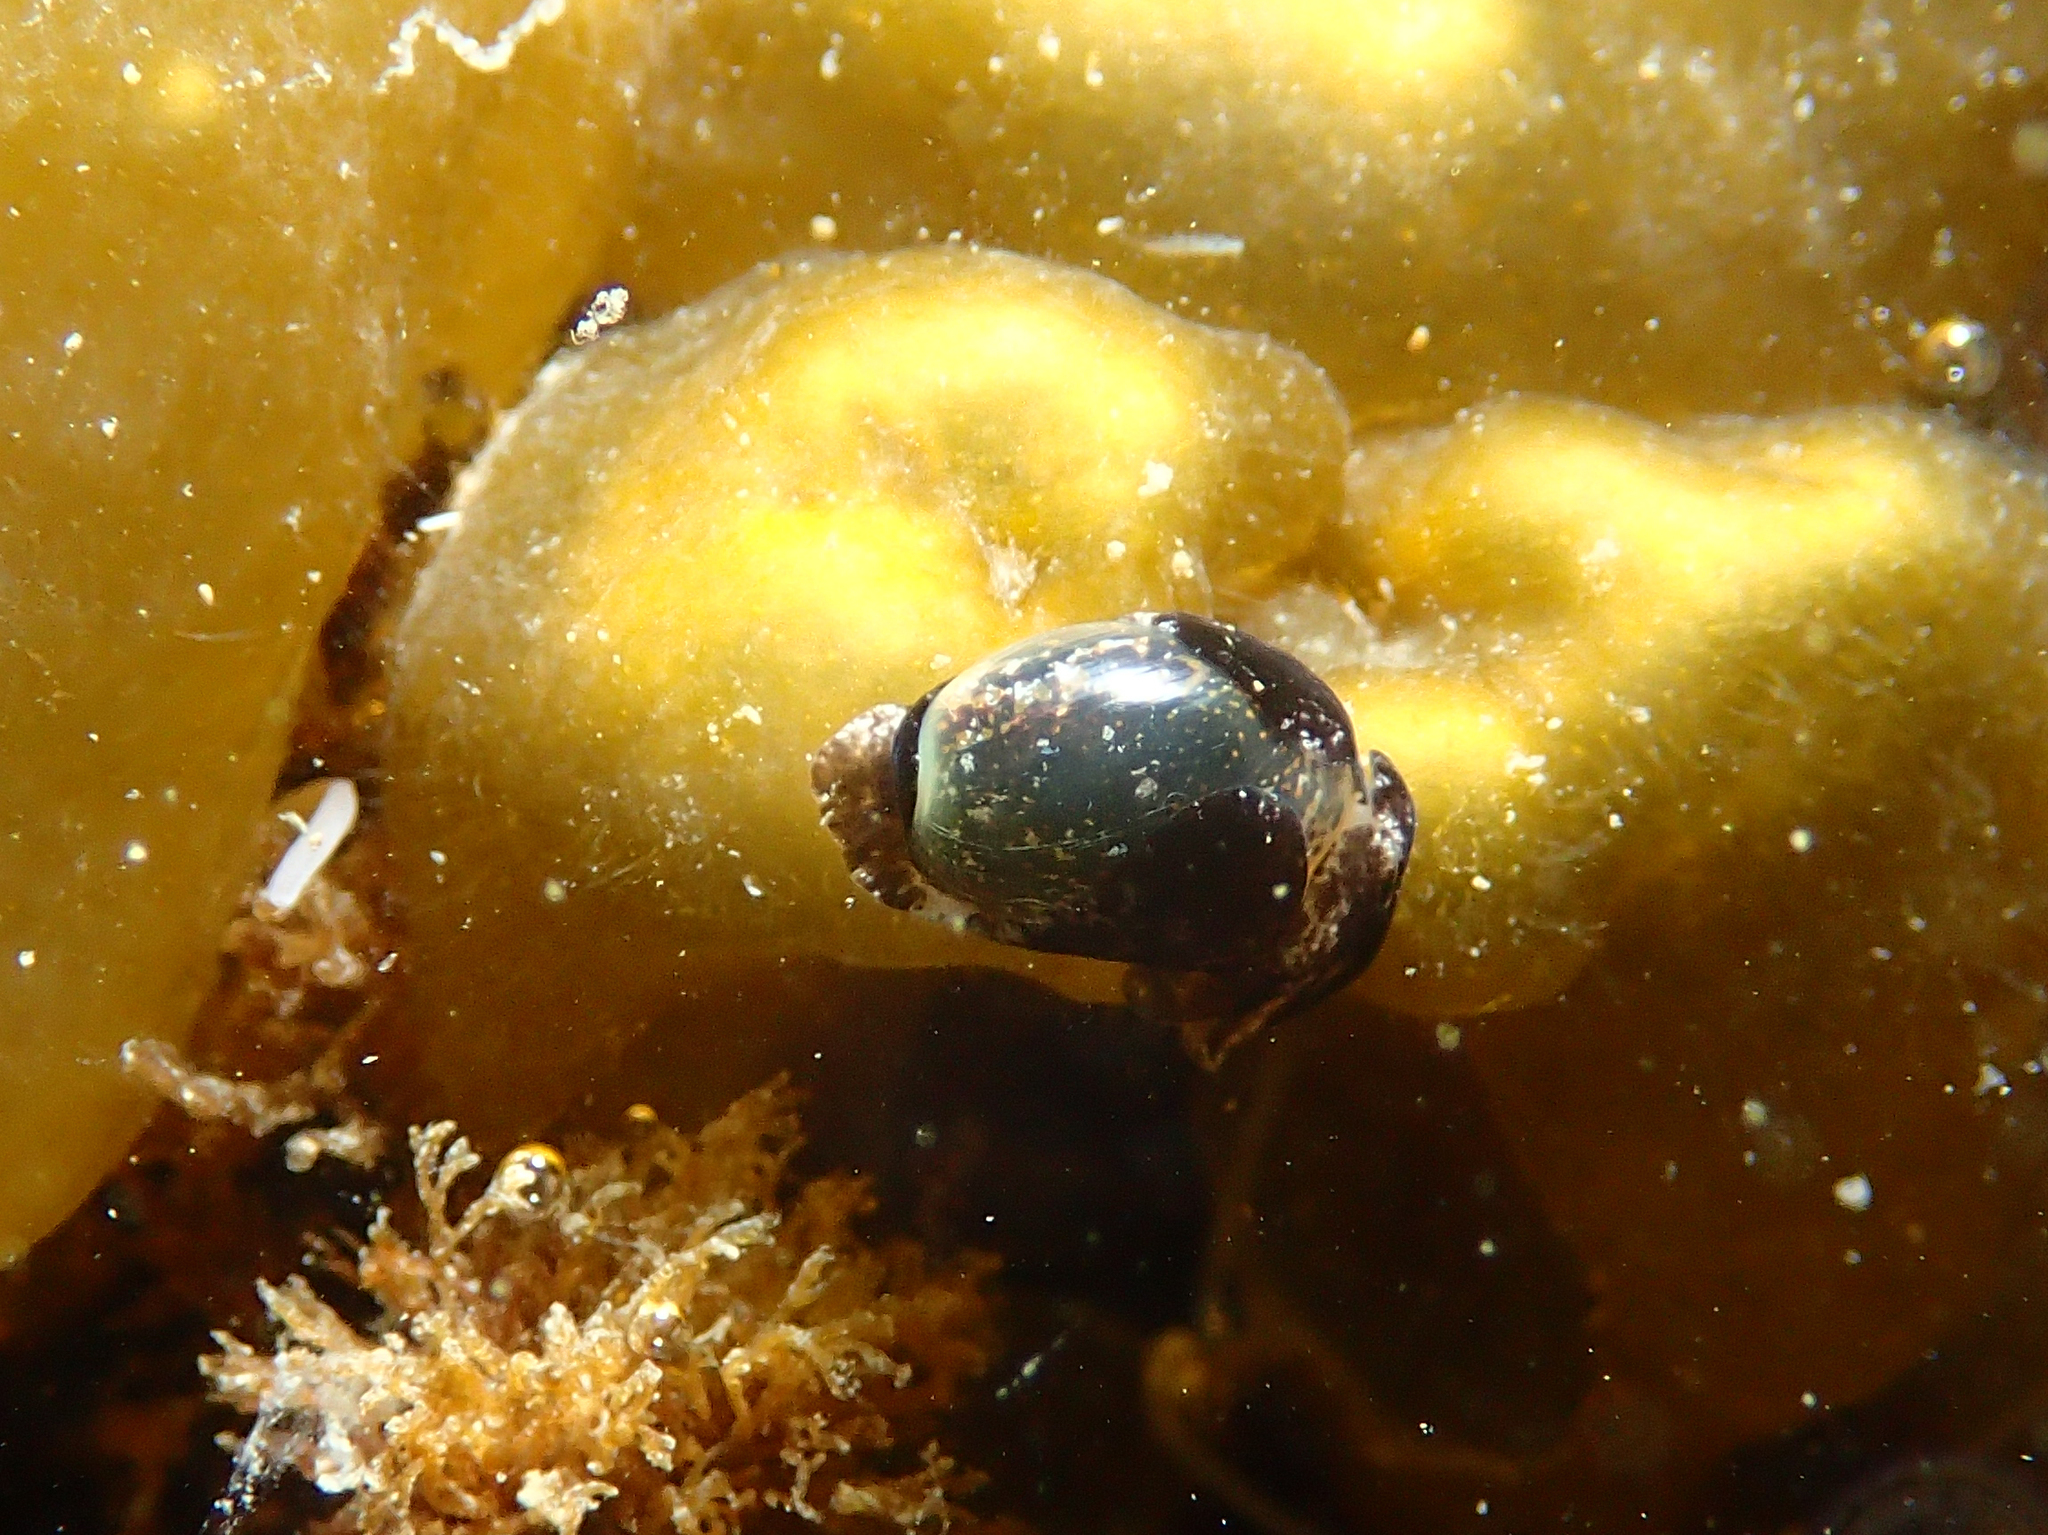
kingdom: Animalia
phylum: Mollusca
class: Gastropoda
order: Cephalaspidea
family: Haminoeidae
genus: Haminoea
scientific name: Haminoea exigua
